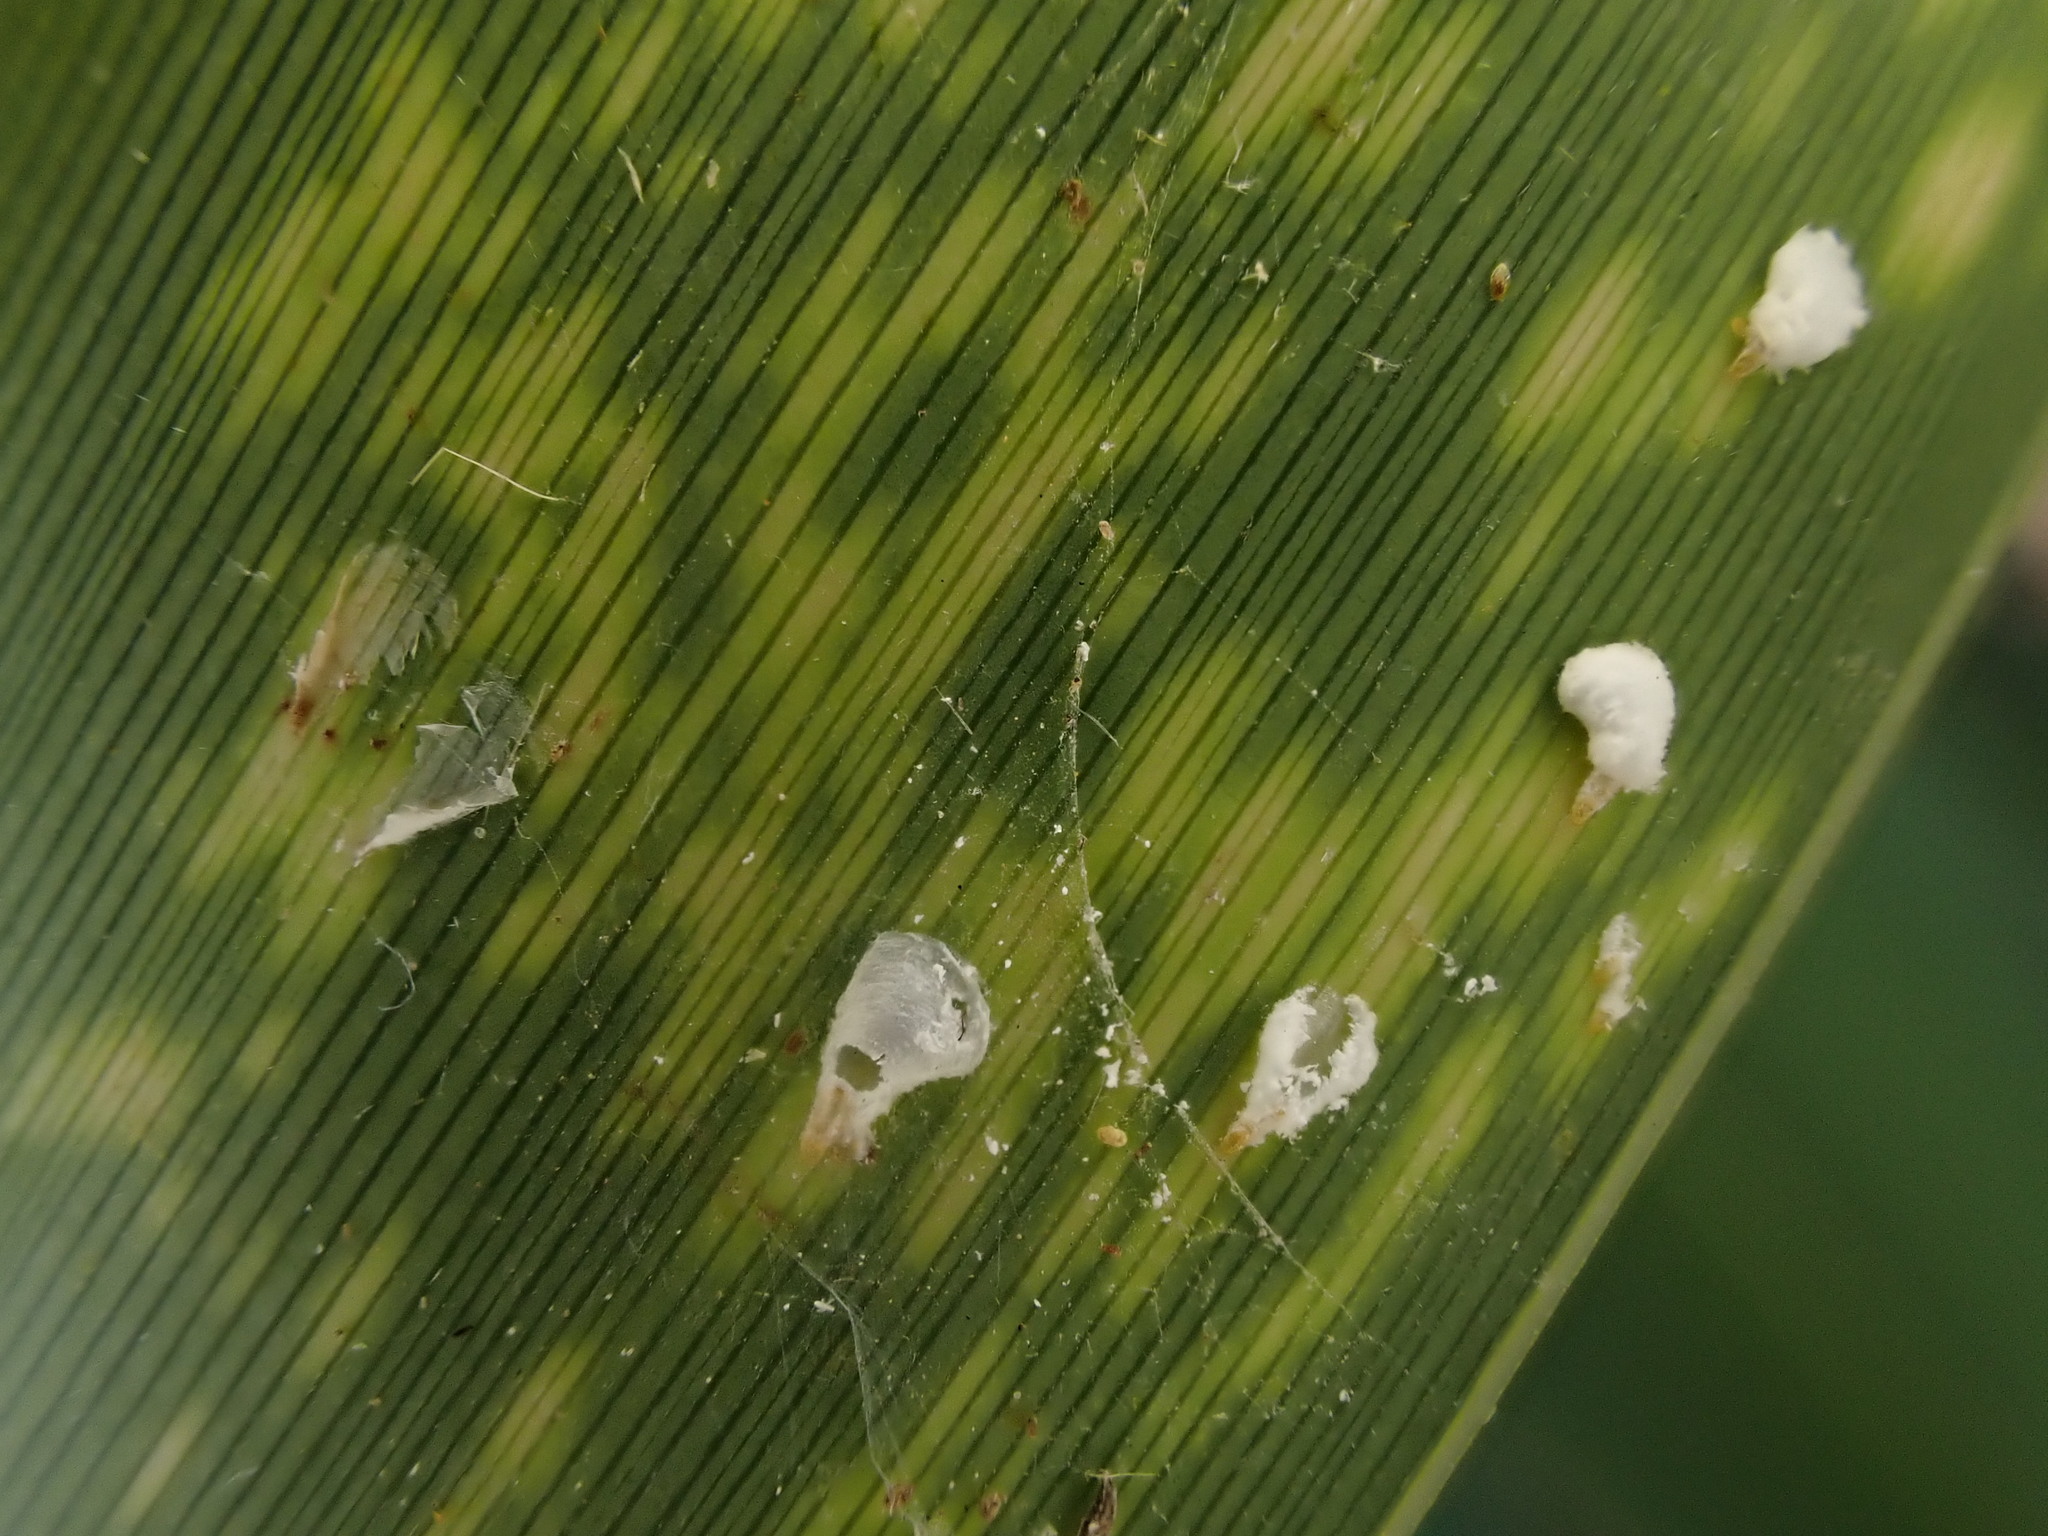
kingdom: Animalia
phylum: Arthropoda
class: Insecta
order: Hemiptera
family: Diaspididae
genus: Poliaspis
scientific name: Poliaspis floccosa
